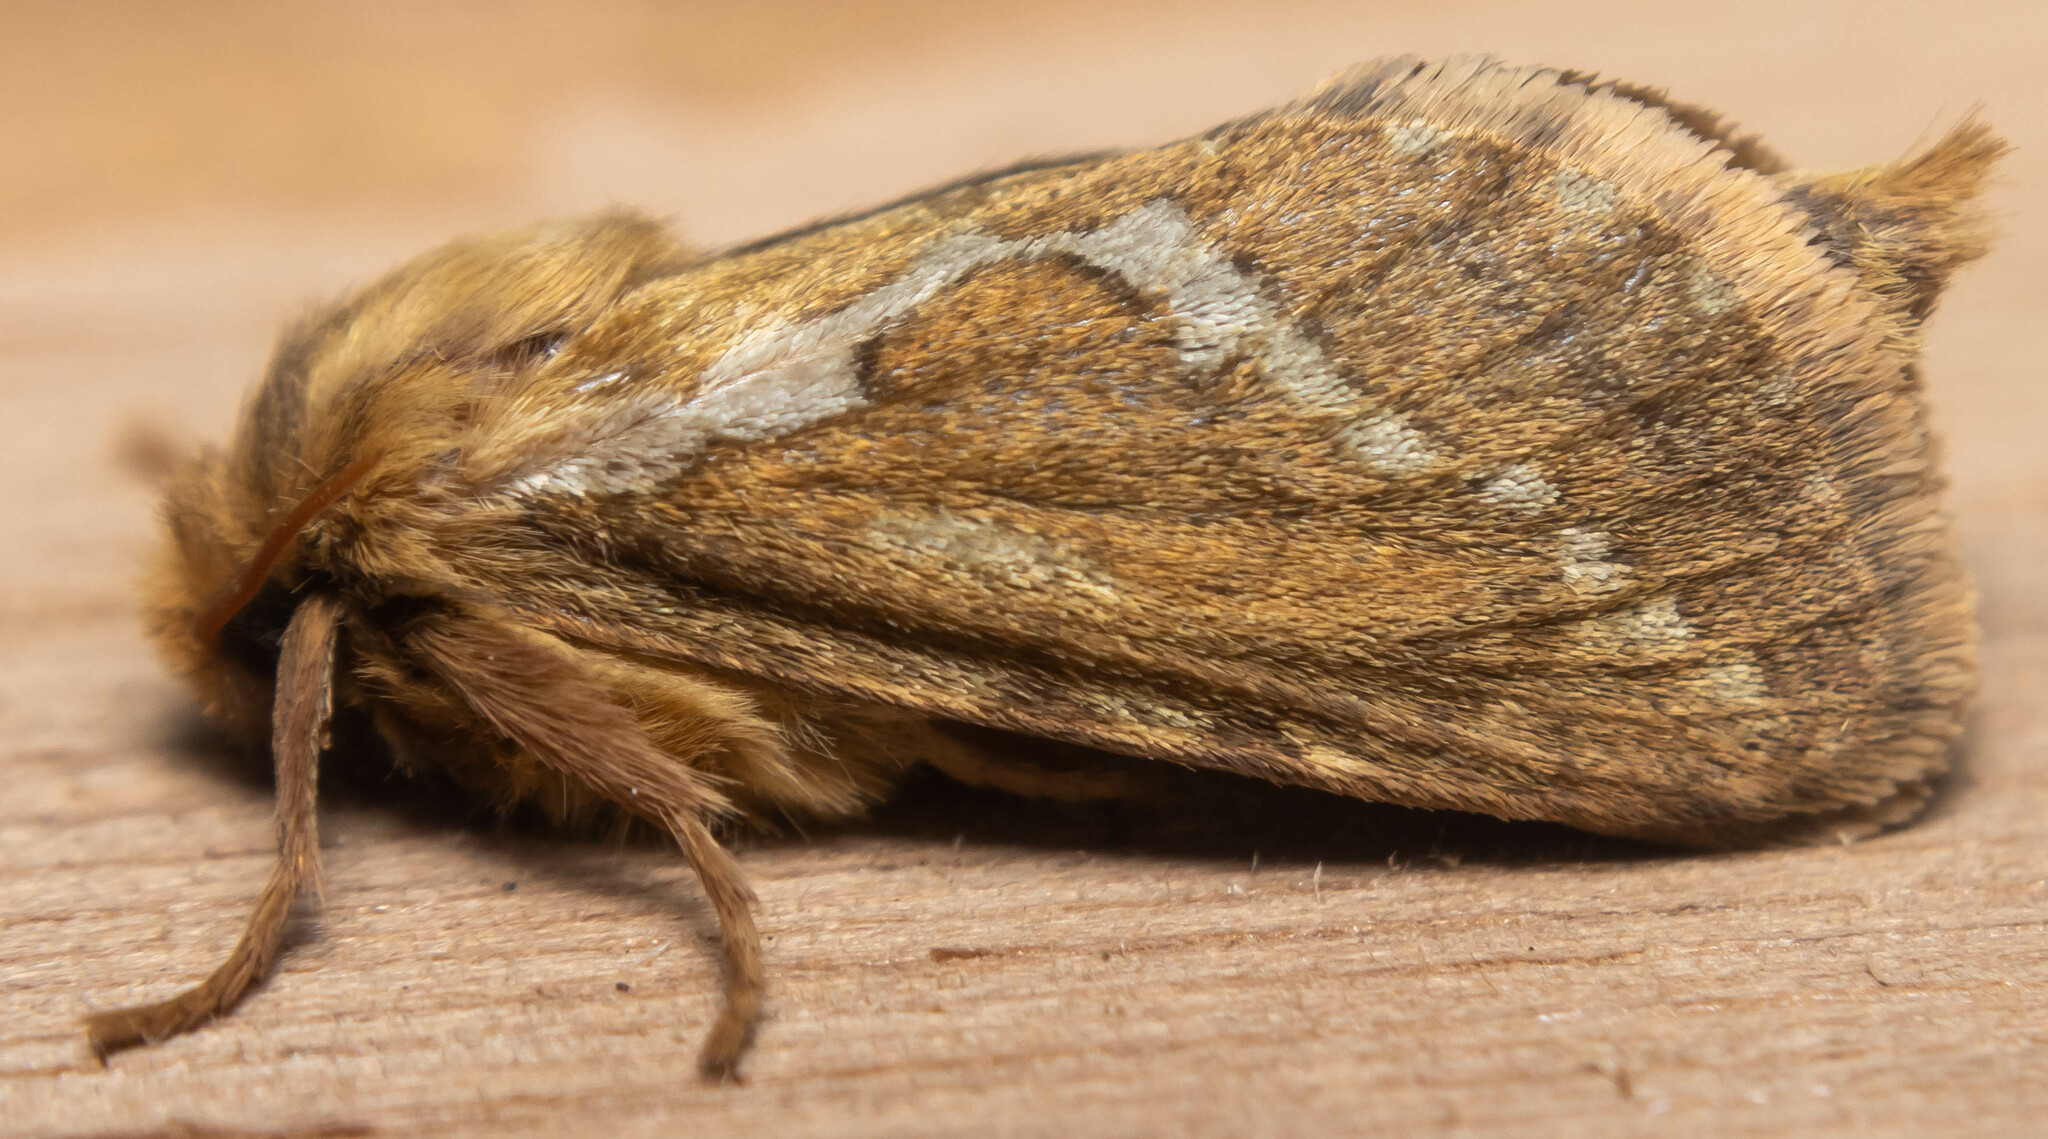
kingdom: Animalia
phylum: Arthropoda
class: Insecta
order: Lepidoptera
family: Hepialidae
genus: Korscheltellus
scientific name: Korscheltellus lupulina
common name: Common swift
